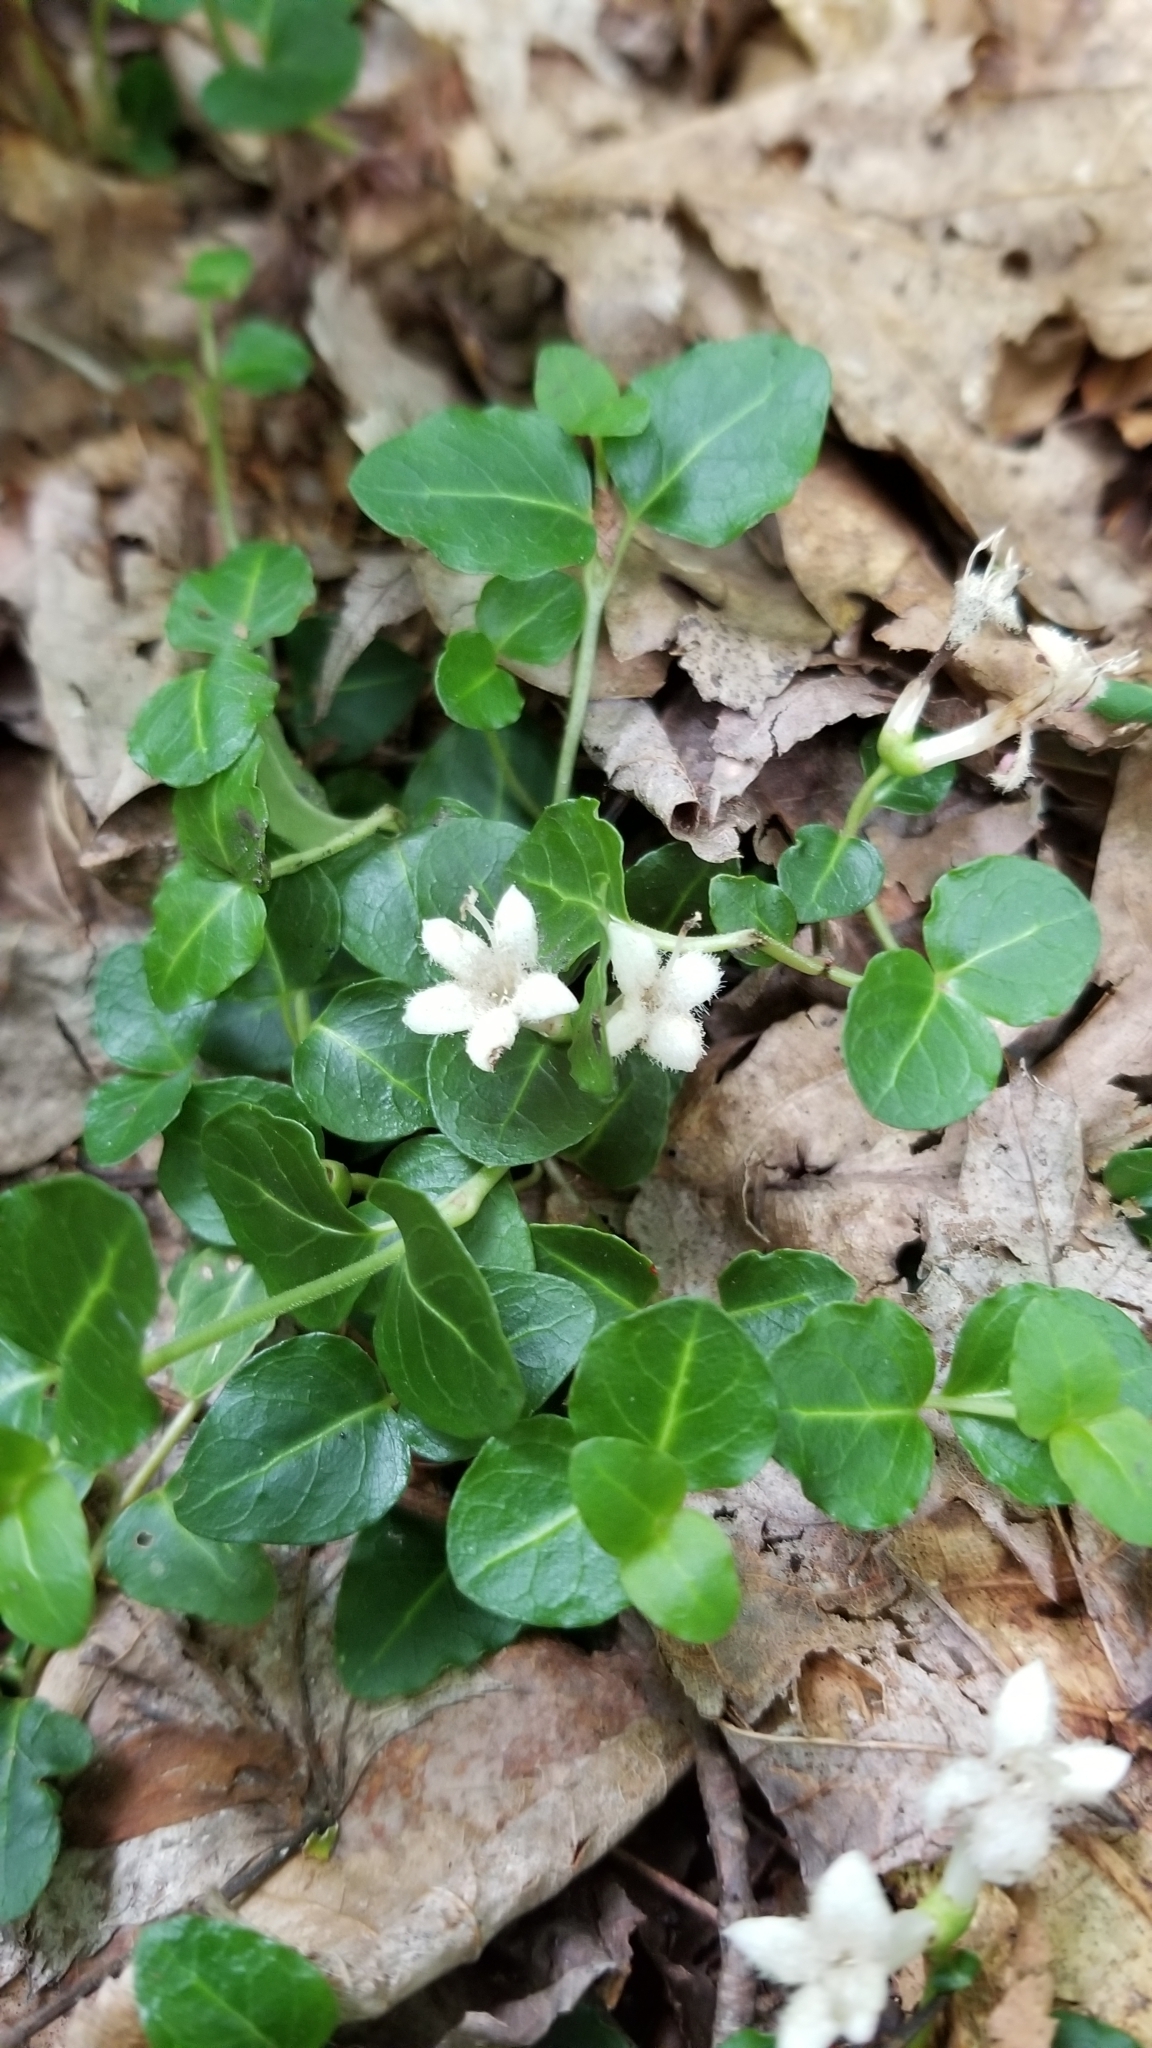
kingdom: Plantae
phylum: Tracheophyta
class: Magnoliopsida
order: Gentianales
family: Rubiaceae
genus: Mitchella
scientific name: Mitchella repens
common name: Partridge-berry
